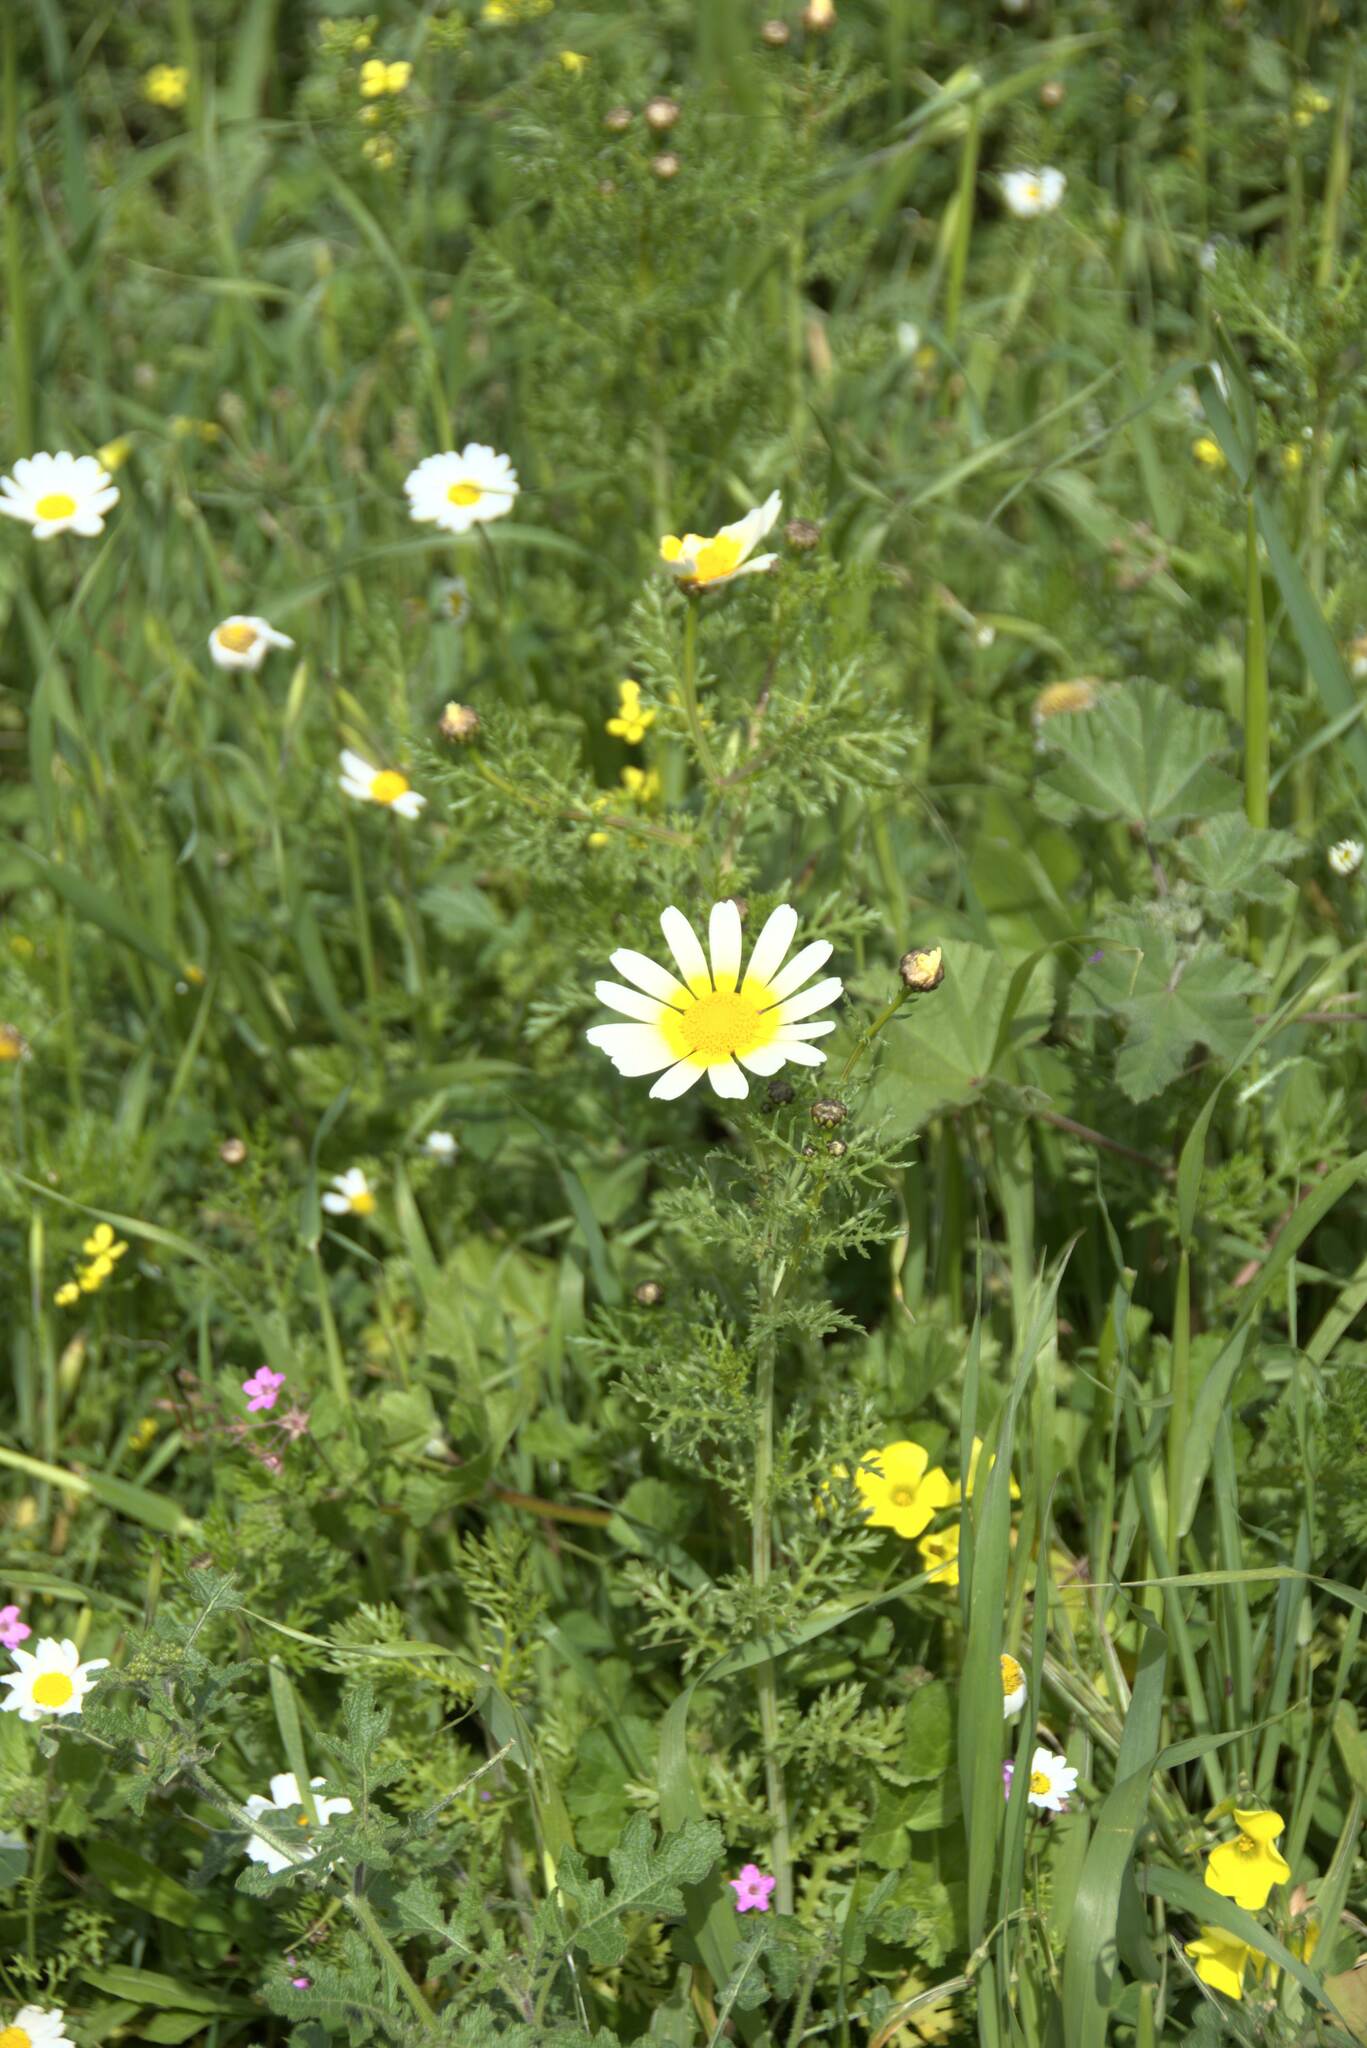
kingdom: Plantae
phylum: Tracheophyta
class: Magnoliopsida
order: Asterales
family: Asteraceae
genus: Glebionis
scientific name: Glebionis coronaria
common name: Crowndaisy
